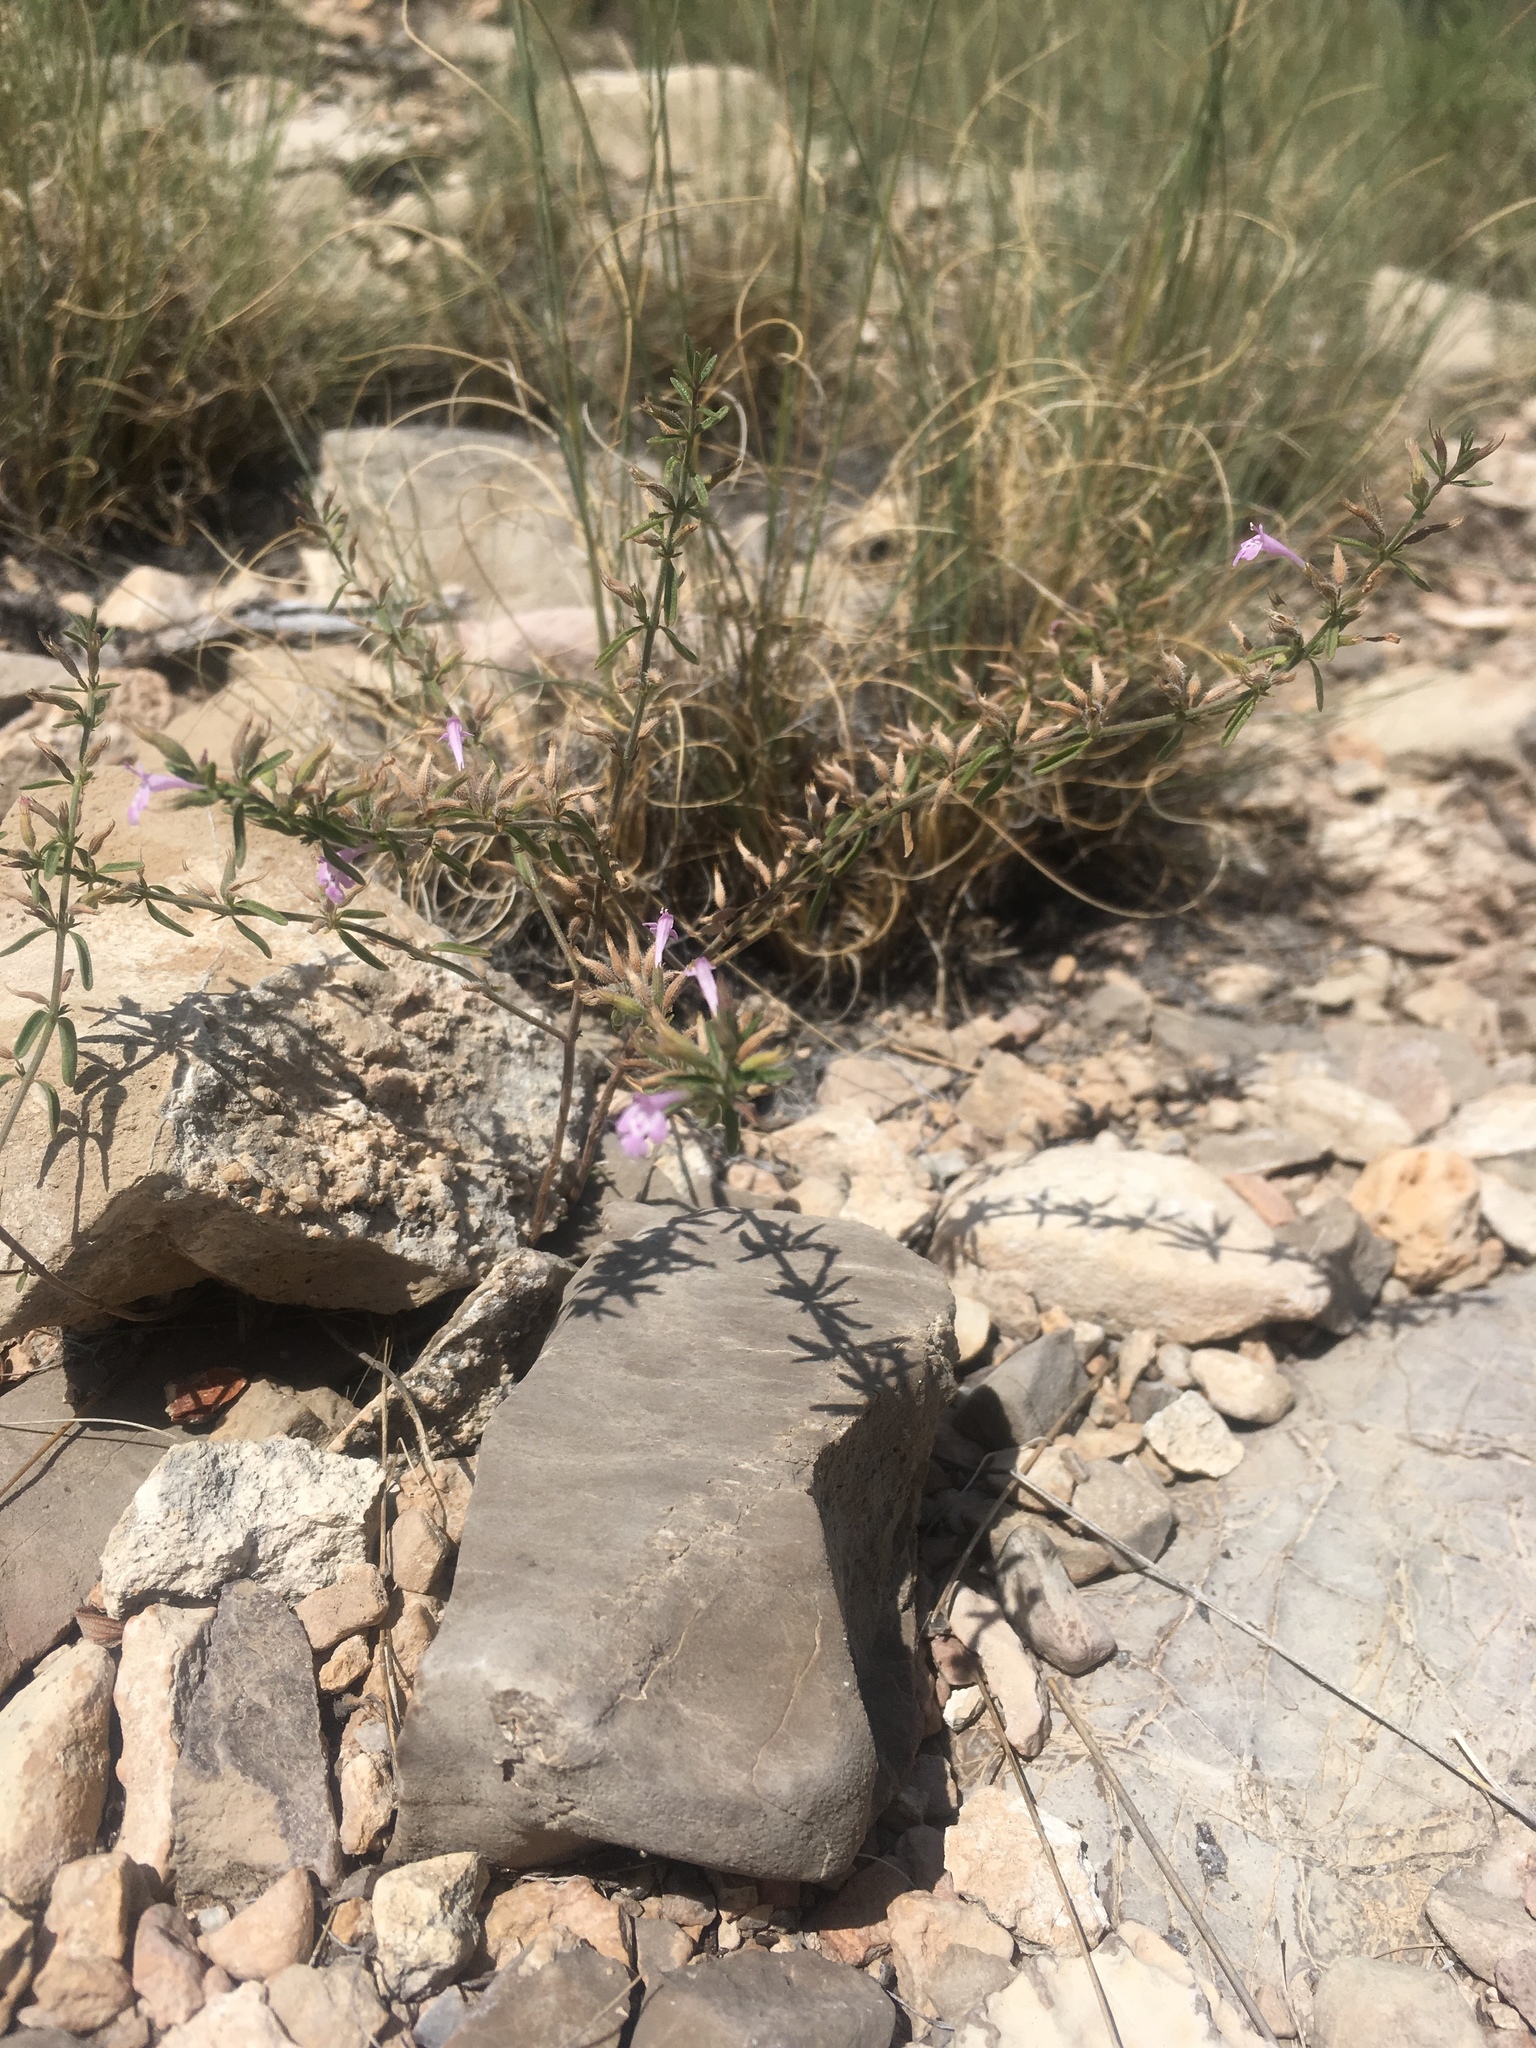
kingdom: Plantae
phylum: Tracheophyta
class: Magnoliopsida
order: Lamiales
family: Lamiaceae
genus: Hedeoma
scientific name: Hedeoma drummondii
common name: New mexico pennyroyal
